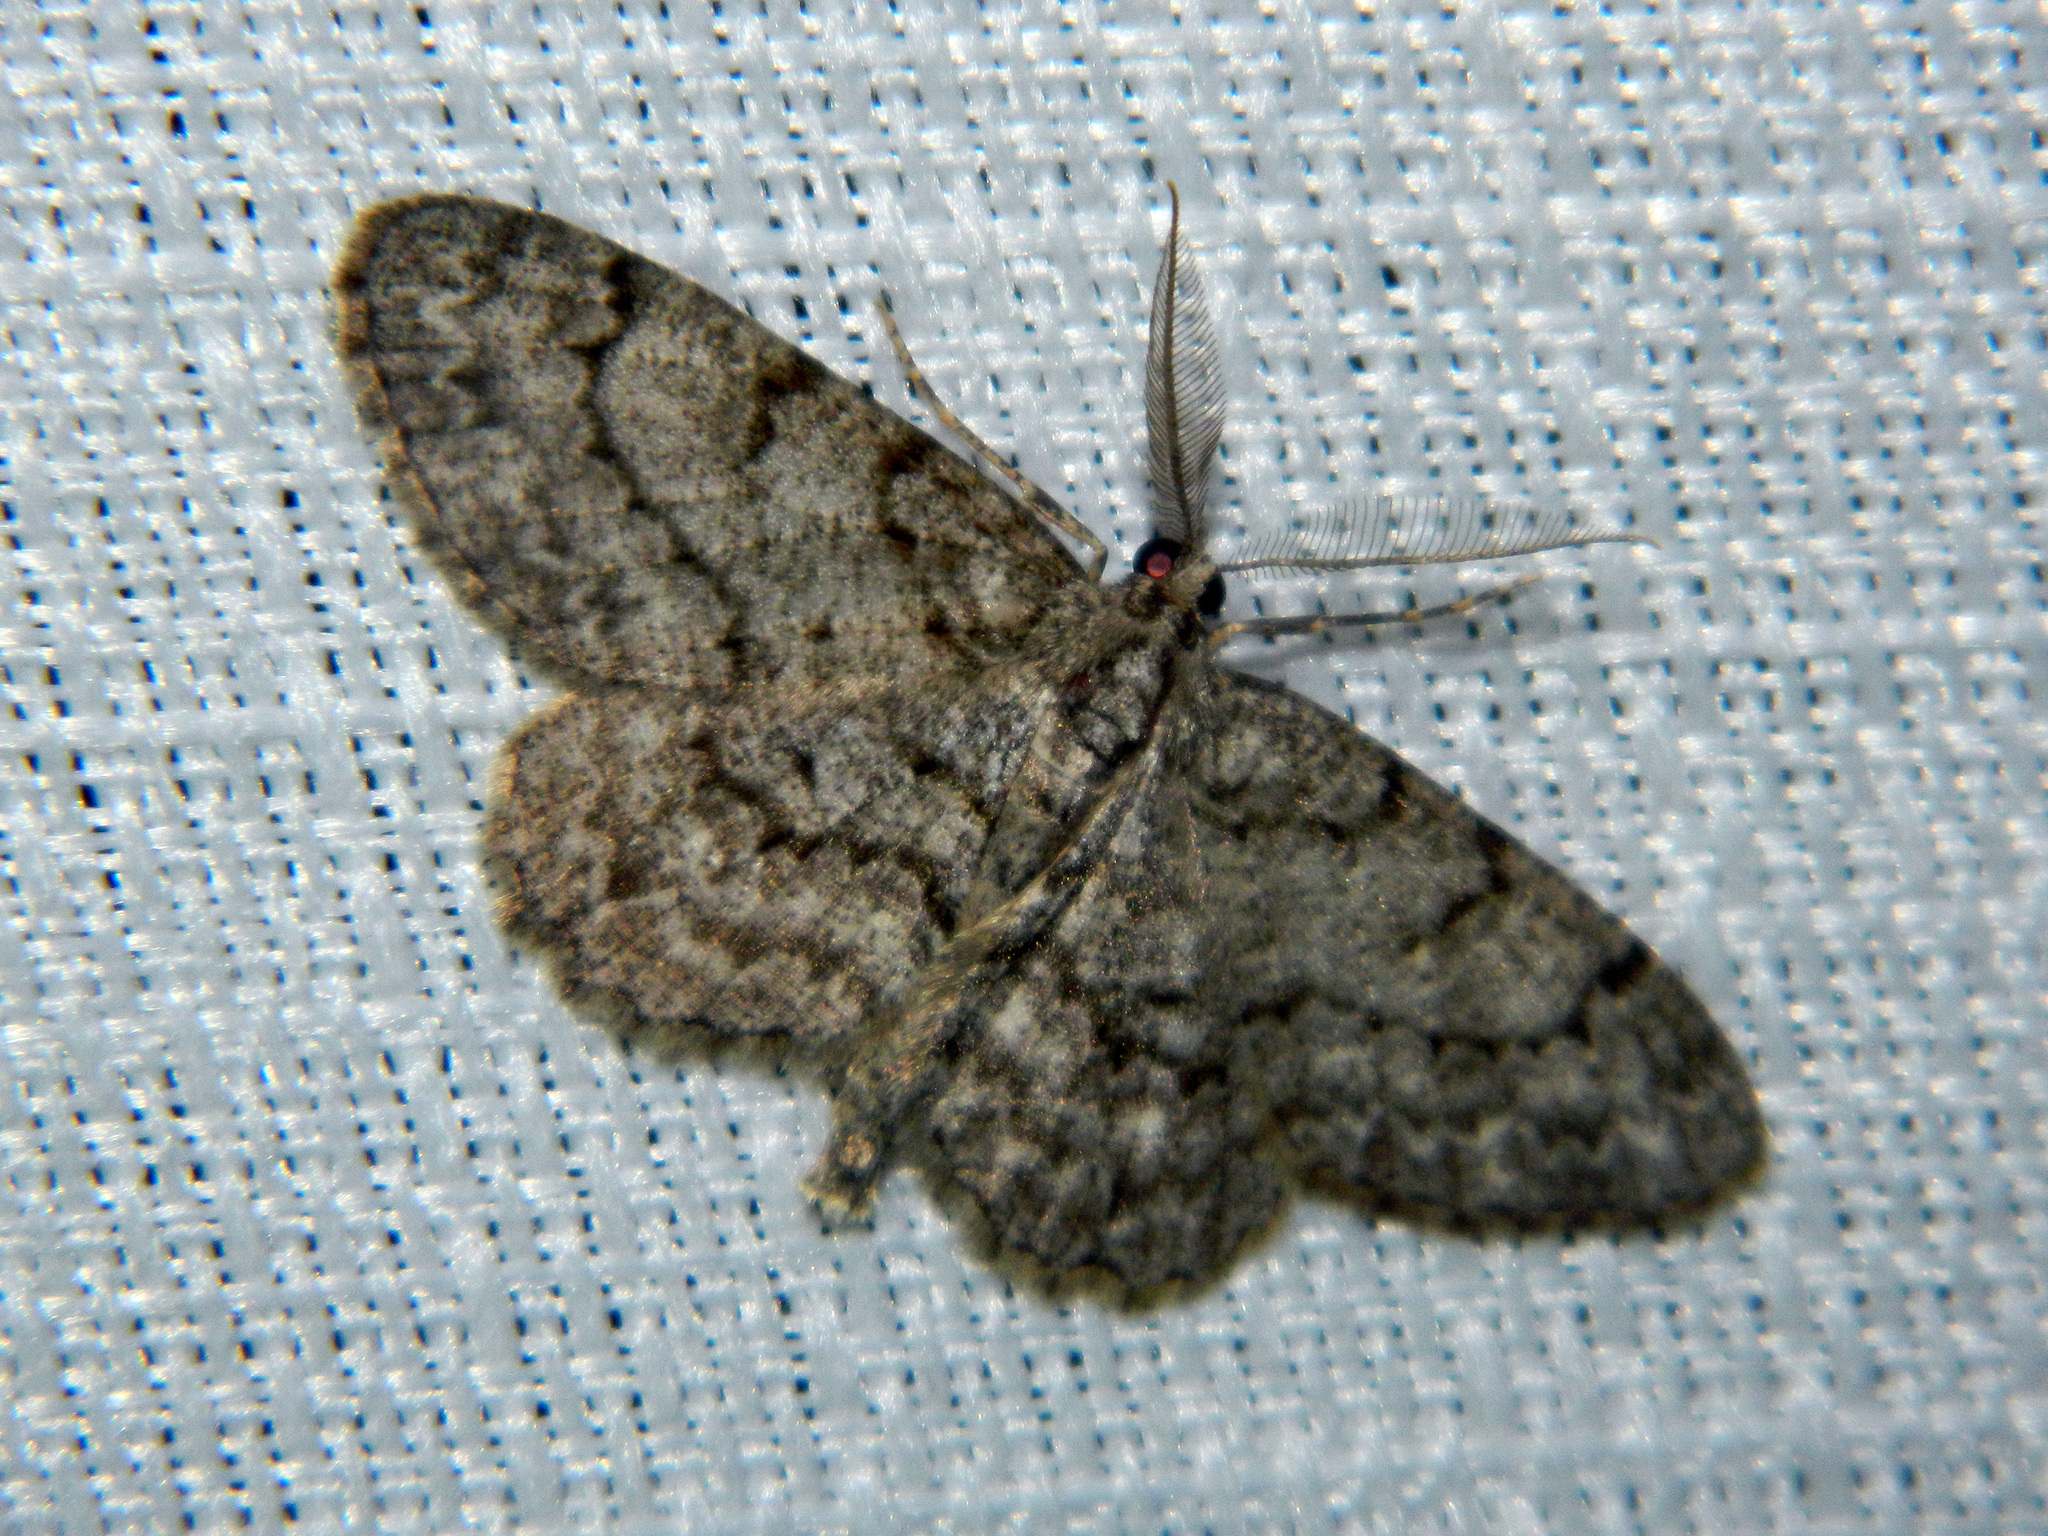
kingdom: Animalia
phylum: Arthropoda
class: Insecta
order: Lepidoptera
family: Geometridae
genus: Protoboarmia
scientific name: Protoboarmia porcelaria
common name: Porcelain gray
